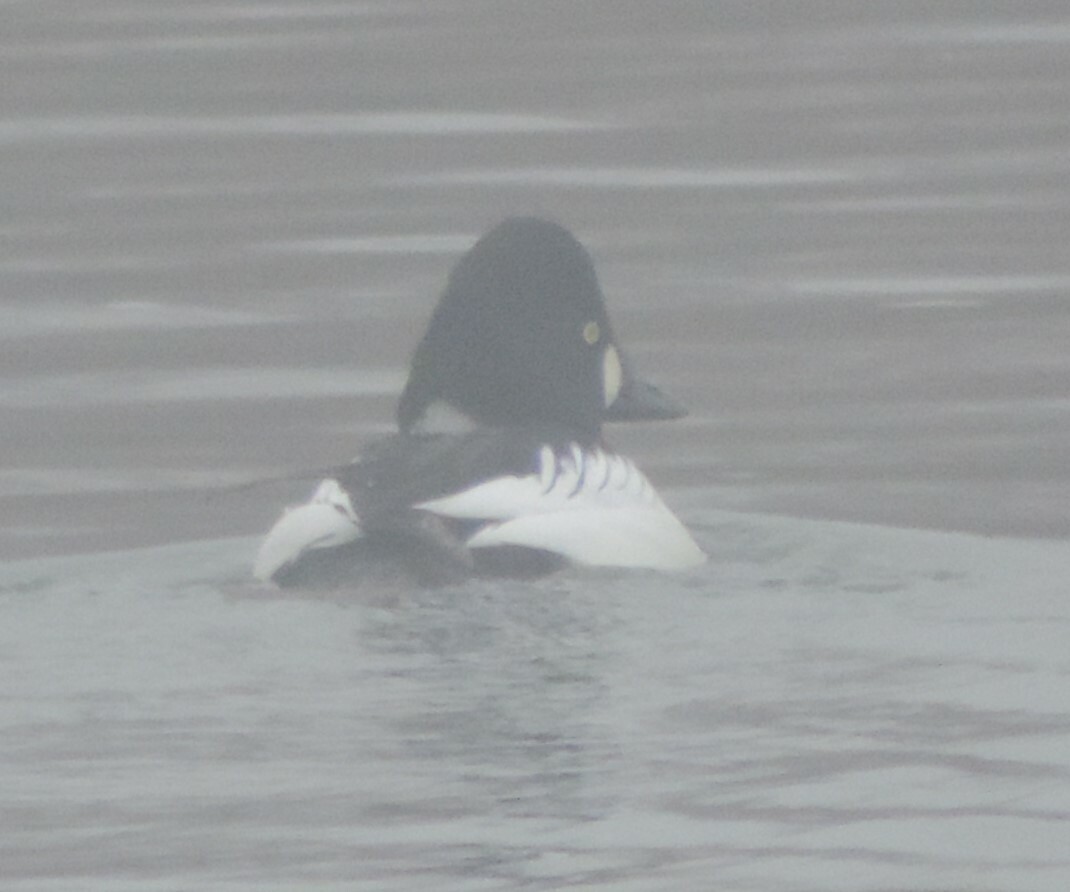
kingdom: Animalia
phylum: Chordata
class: Aves
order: Anseriformes
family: Anatidae
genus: Bucephala
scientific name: Bucephala clangula
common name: Common goldeneye
